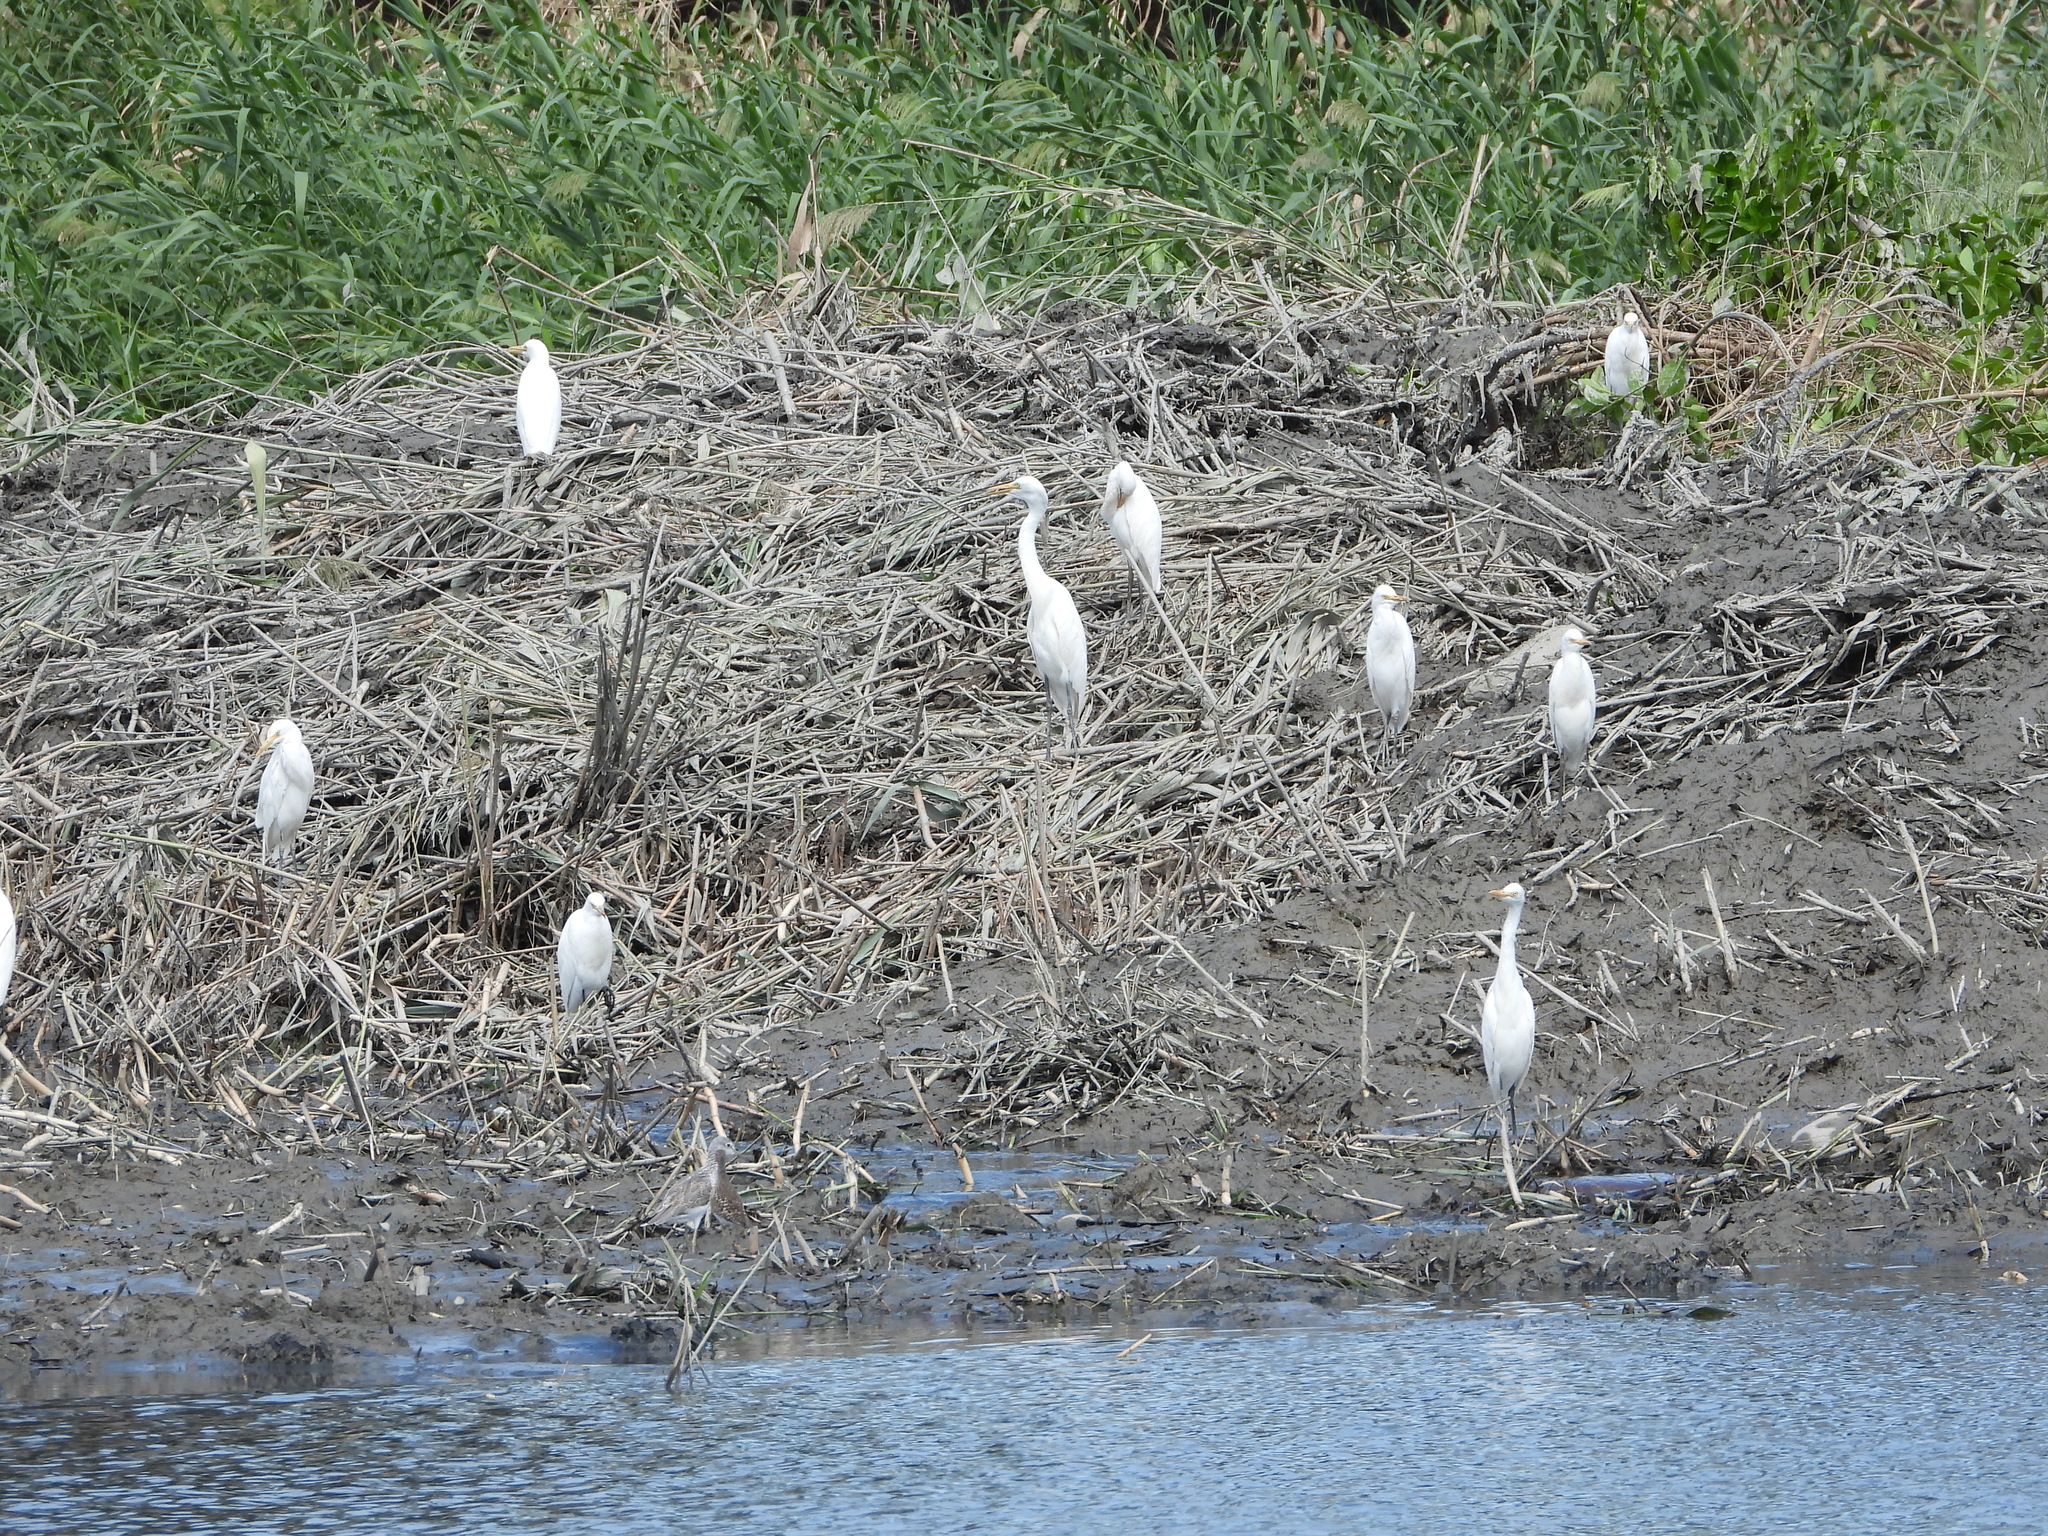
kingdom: Animalia
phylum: Chordata
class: Aves
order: Pelecaniformes
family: Ardeidae
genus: Bubulcus
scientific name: Bubulcus coromandus
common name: Eastern cattle egret
